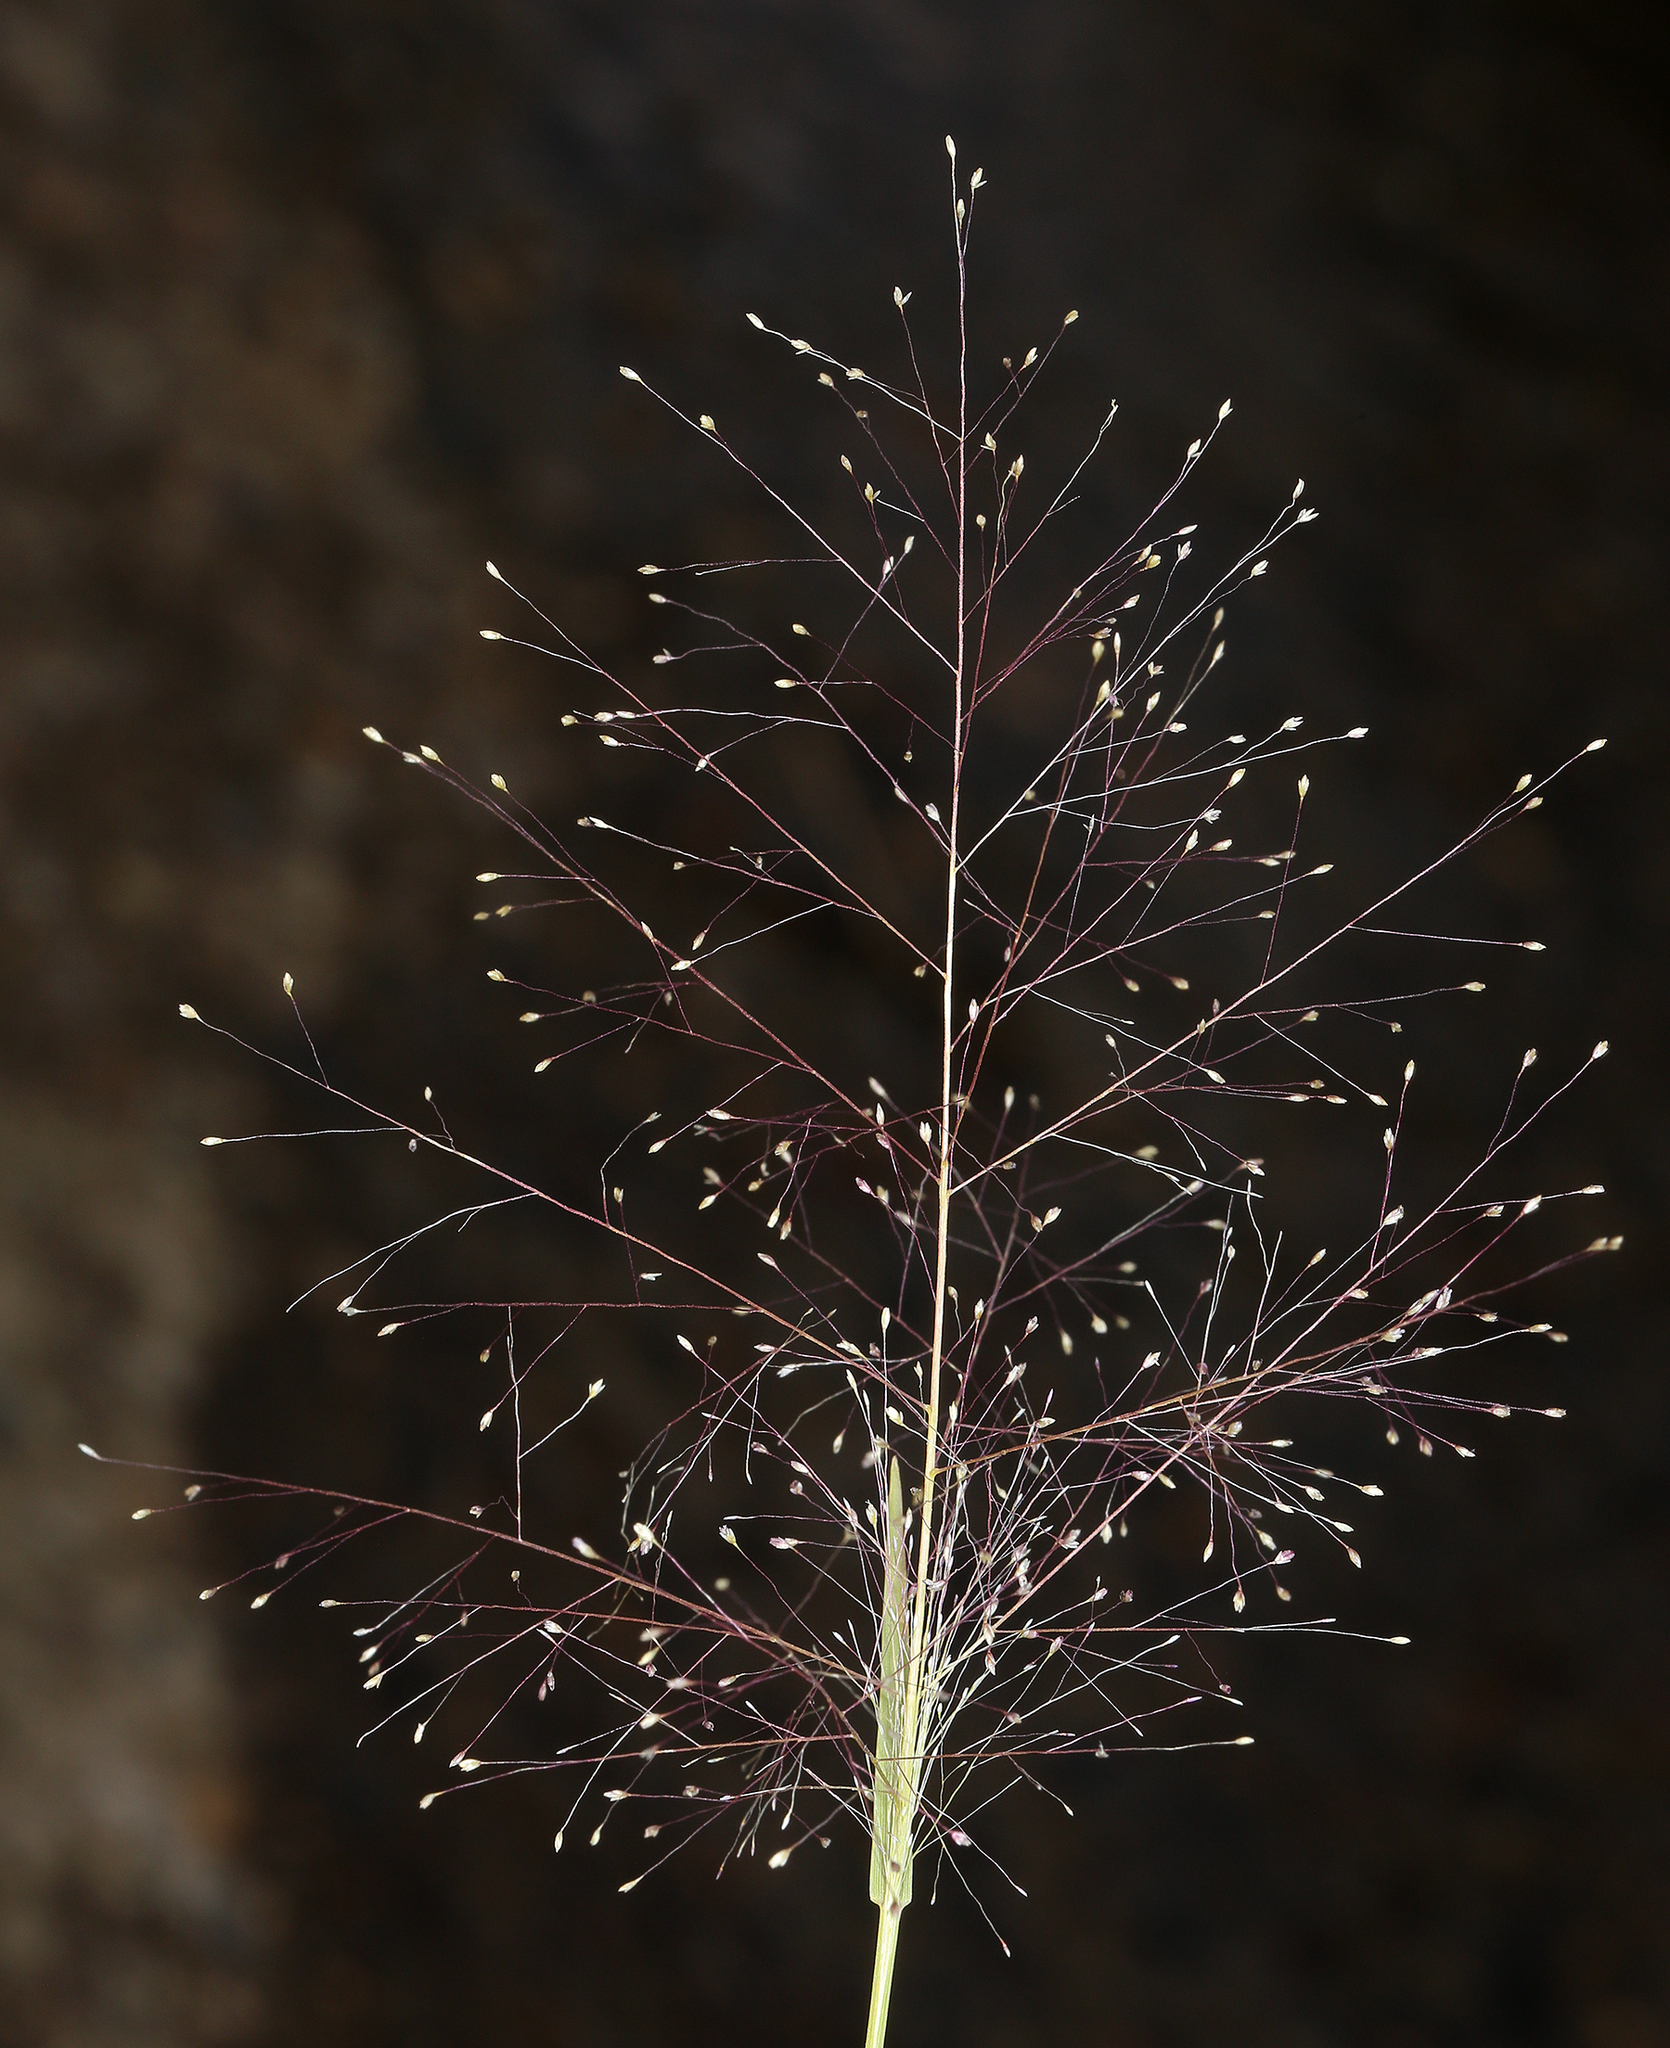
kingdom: Plantae
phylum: Tracheophyta
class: Liliopsida
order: Poales
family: Poaceae
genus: Muhlenbergia
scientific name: Muhlenbergia asperifolia
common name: Alkali muhly
